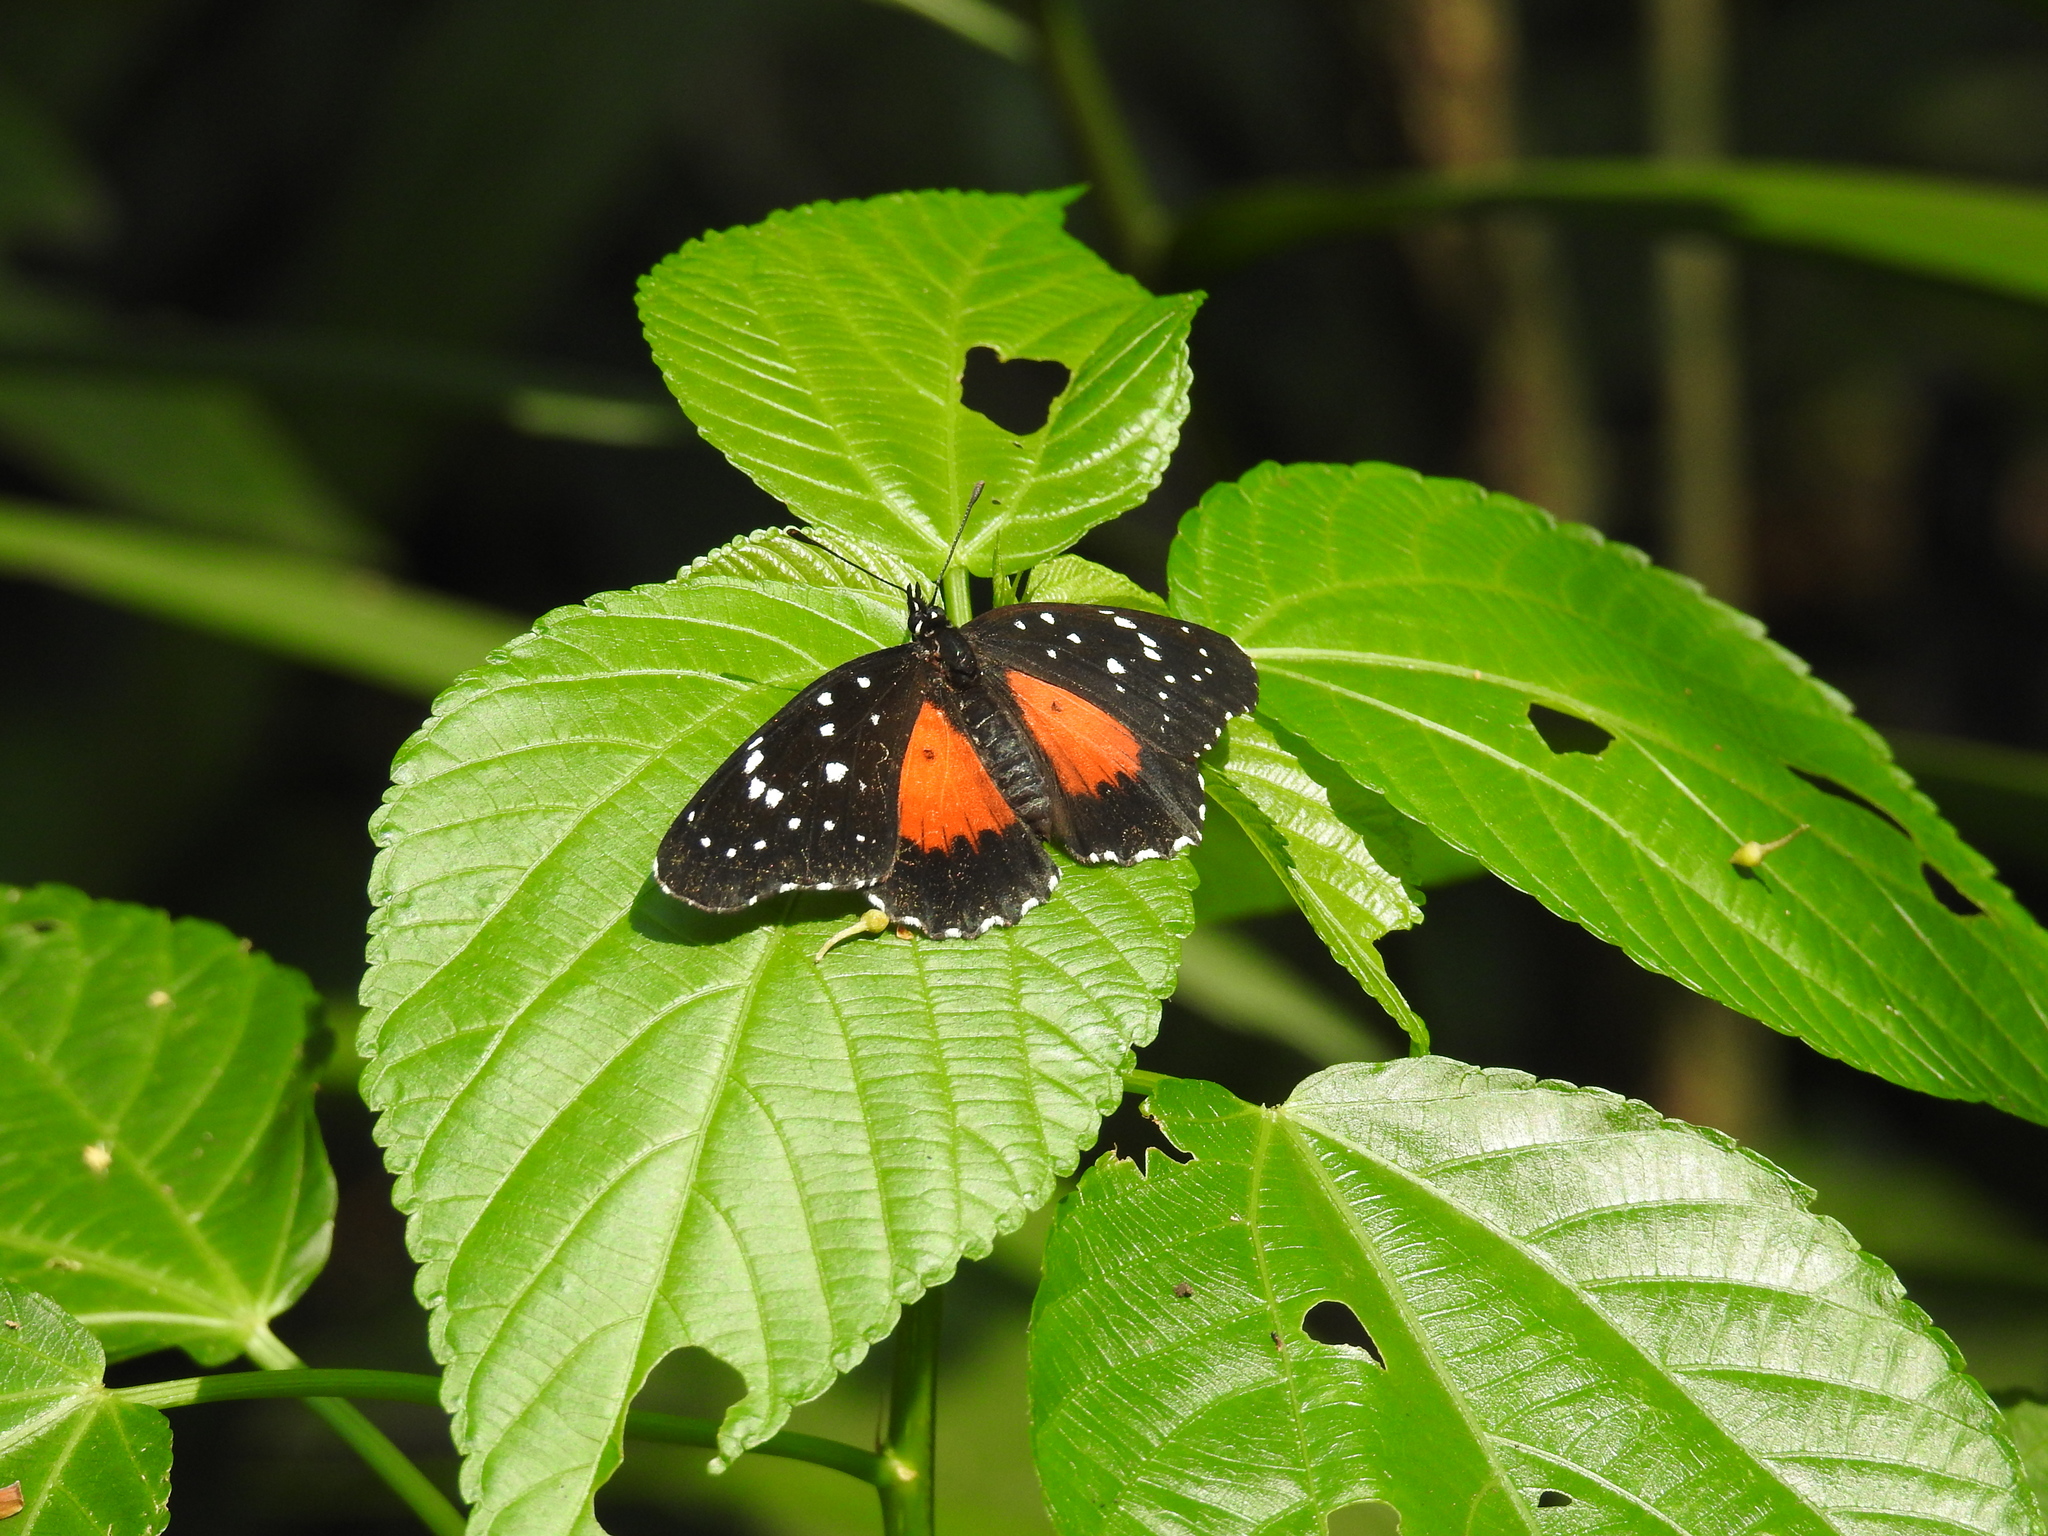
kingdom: Animalia
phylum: Arthropoda
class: Insecta
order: Lepidoptera
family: Nymphalidae
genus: Chlosyne
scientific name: Chlosyne janais
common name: Crimson patch
